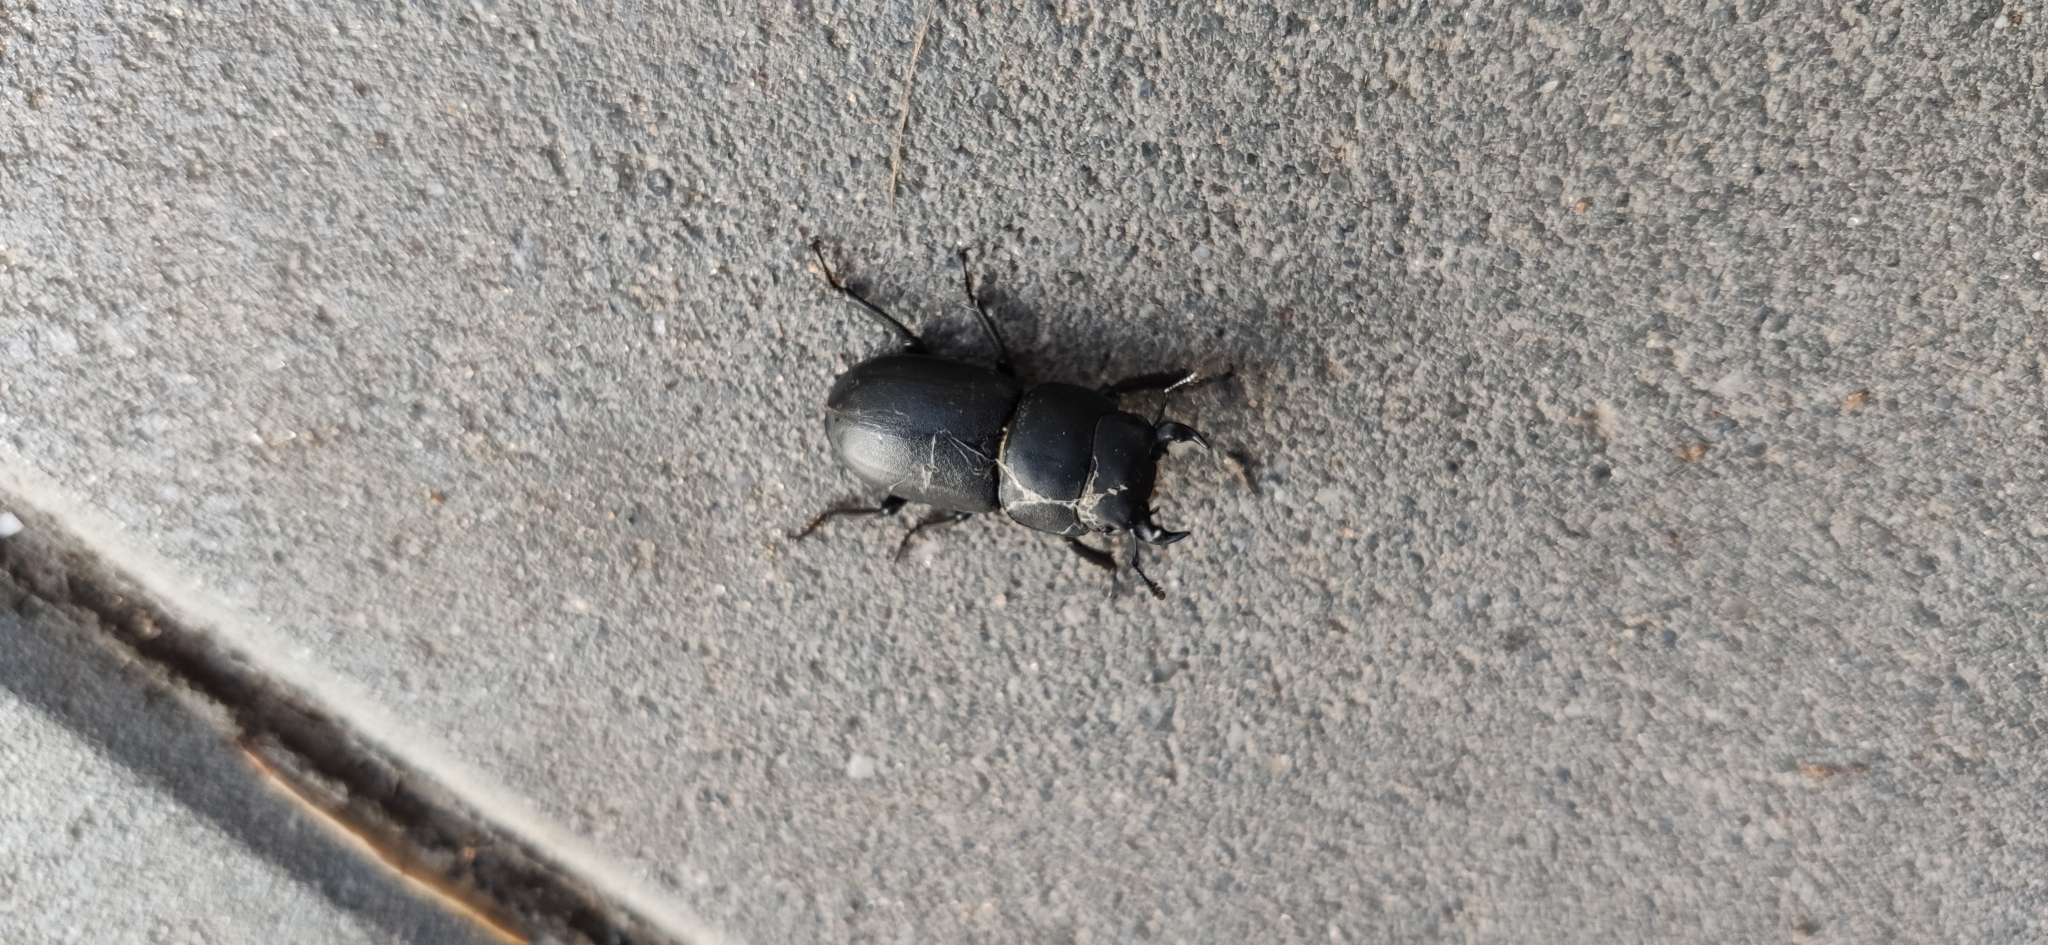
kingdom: Animalia
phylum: Arthropoda
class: Insecta
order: Coleoptera
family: Lucanidae
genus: Dorcus
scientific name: Dorcus parallelipipedus
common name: Lesser stag beetle
